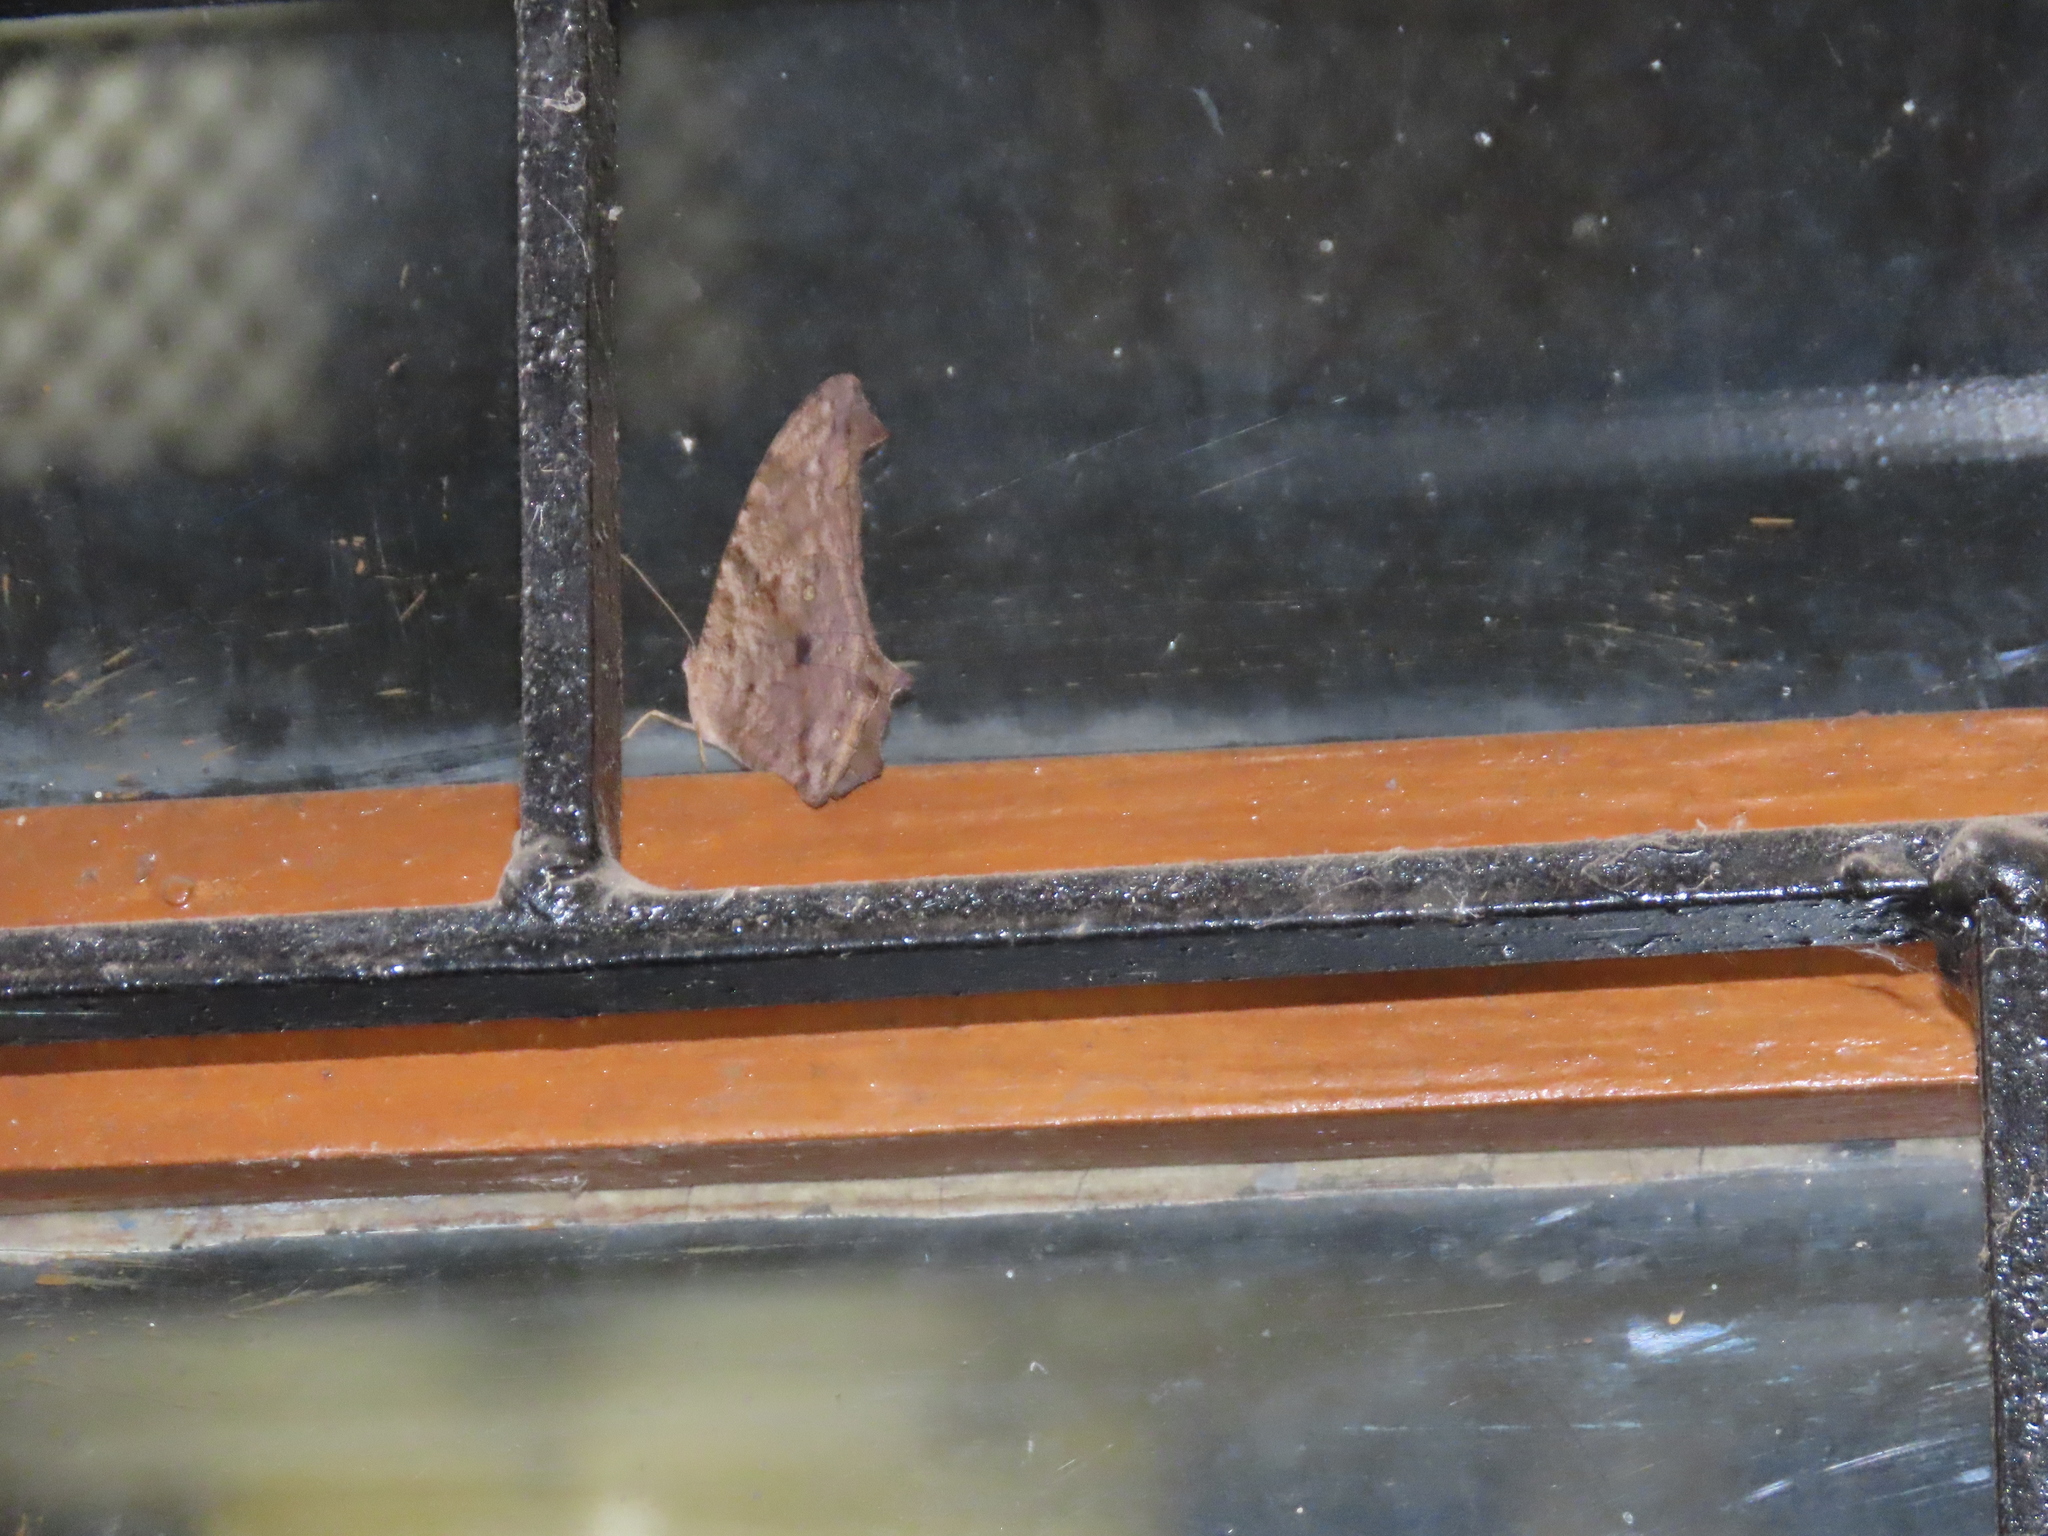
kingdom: Animalia
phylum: Arthropoda
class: Insecta
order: Lepidoptera
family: Nymphalidae
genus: Melanitis
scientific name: Melanitis leda
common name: Twilight brown
